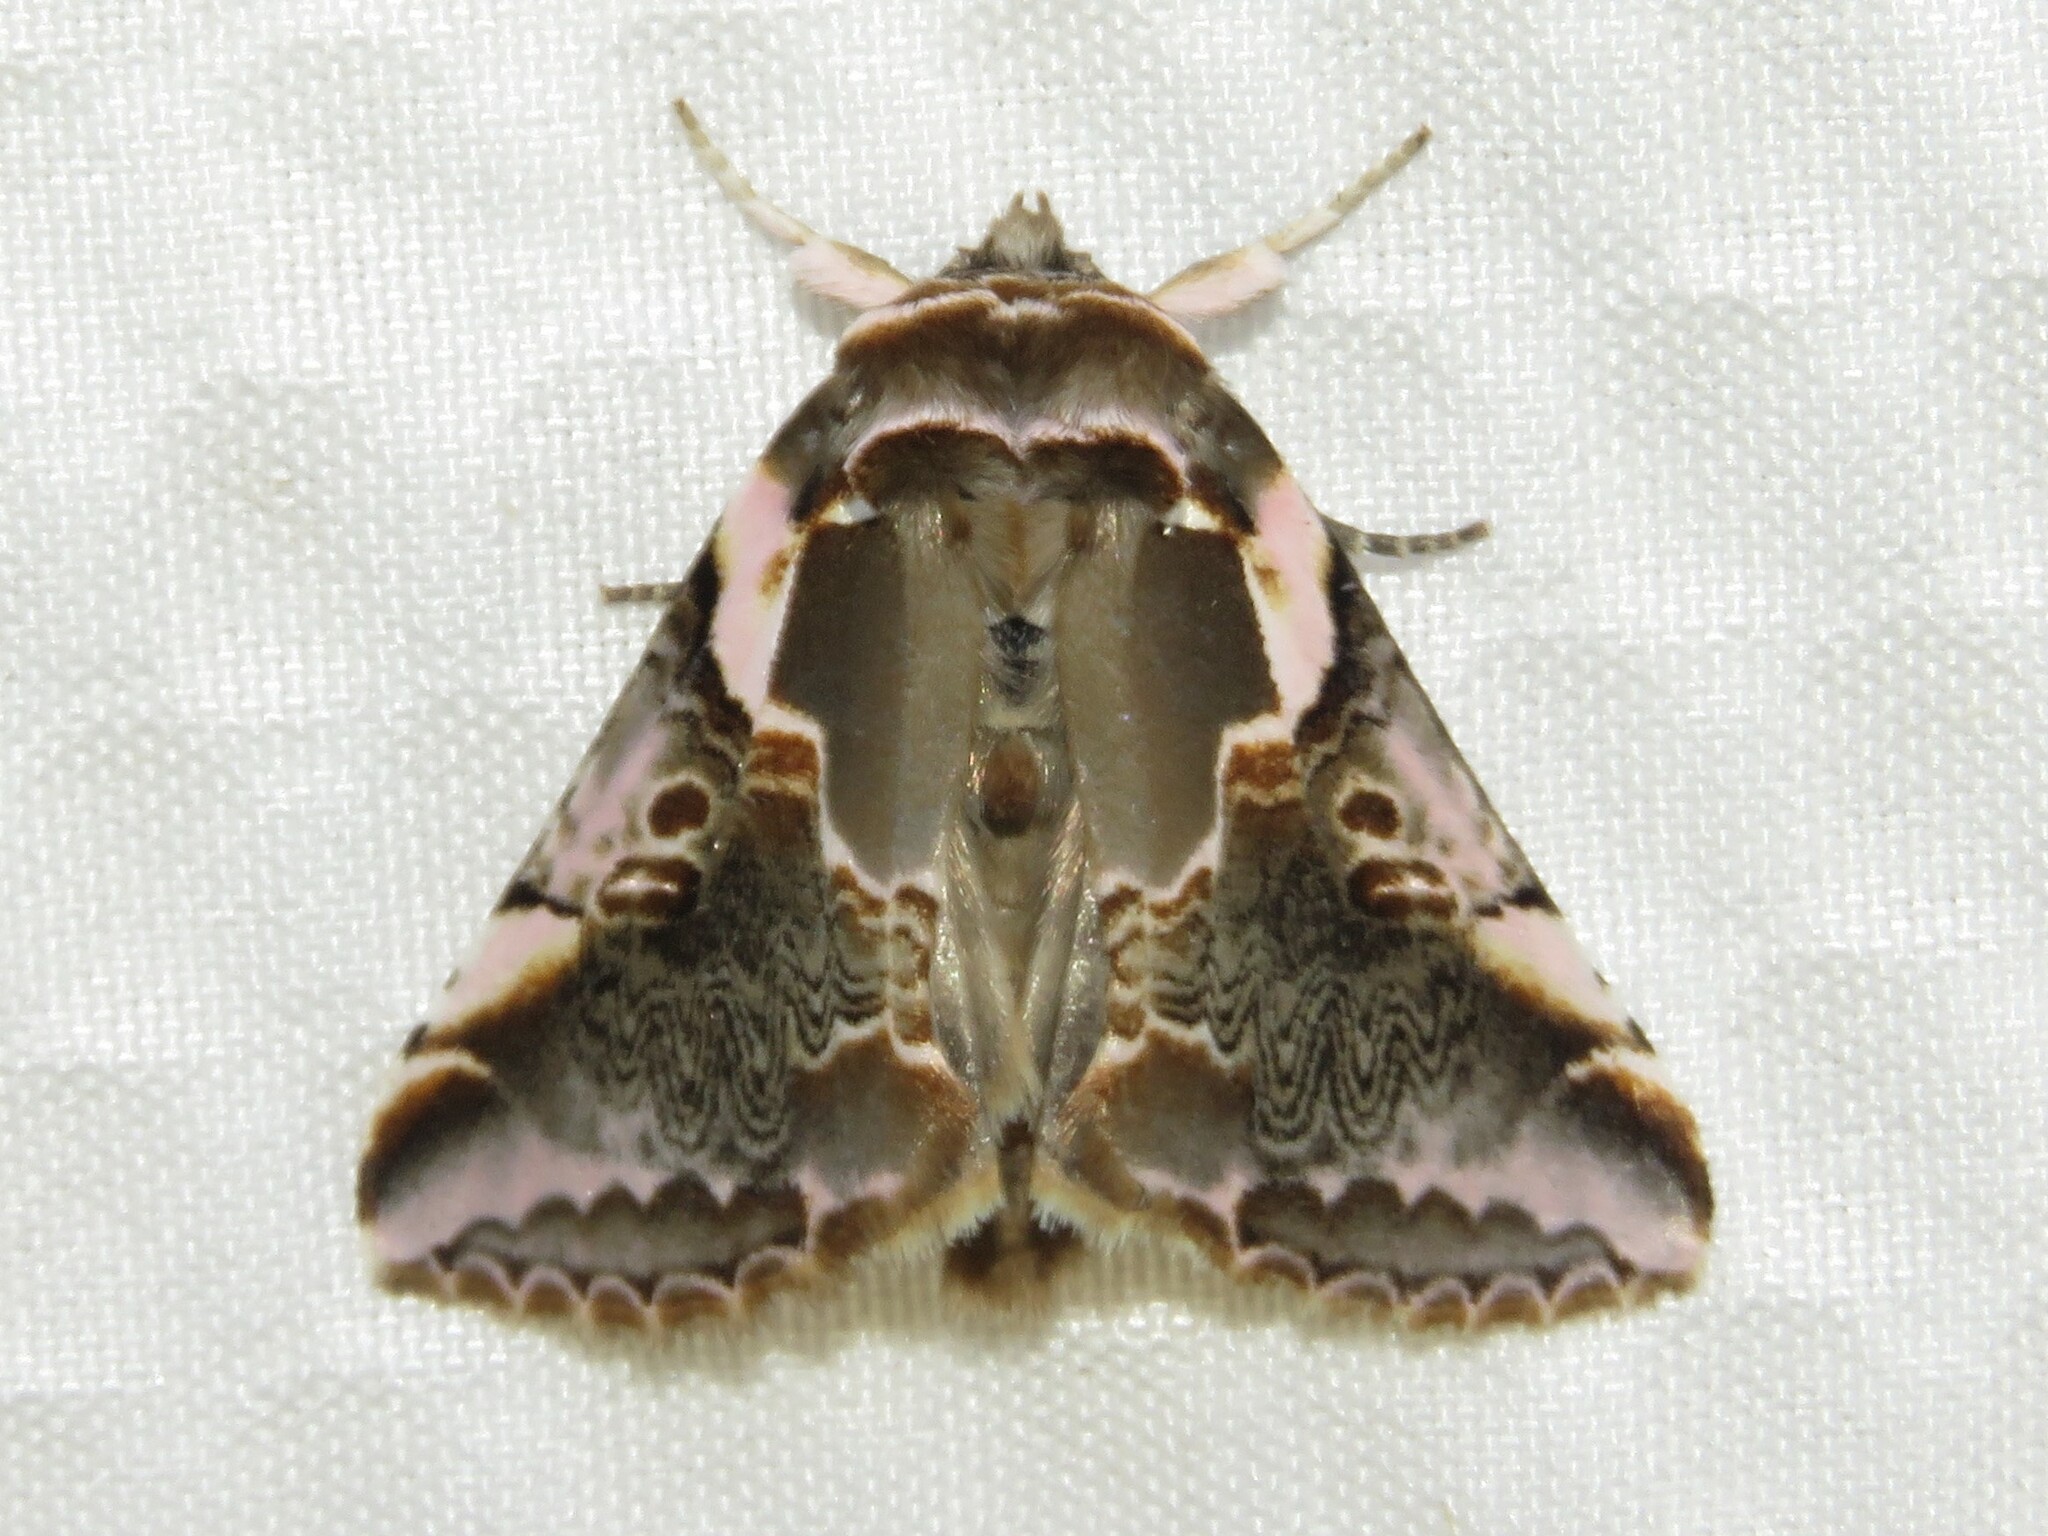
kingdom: Animalia
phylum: Arthropoda
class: Insecta
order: Lepidoptera
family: Drepanidae
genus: Habrosyne
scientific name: Habrosyne gloriosa
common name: Glorious habrosyne moth
